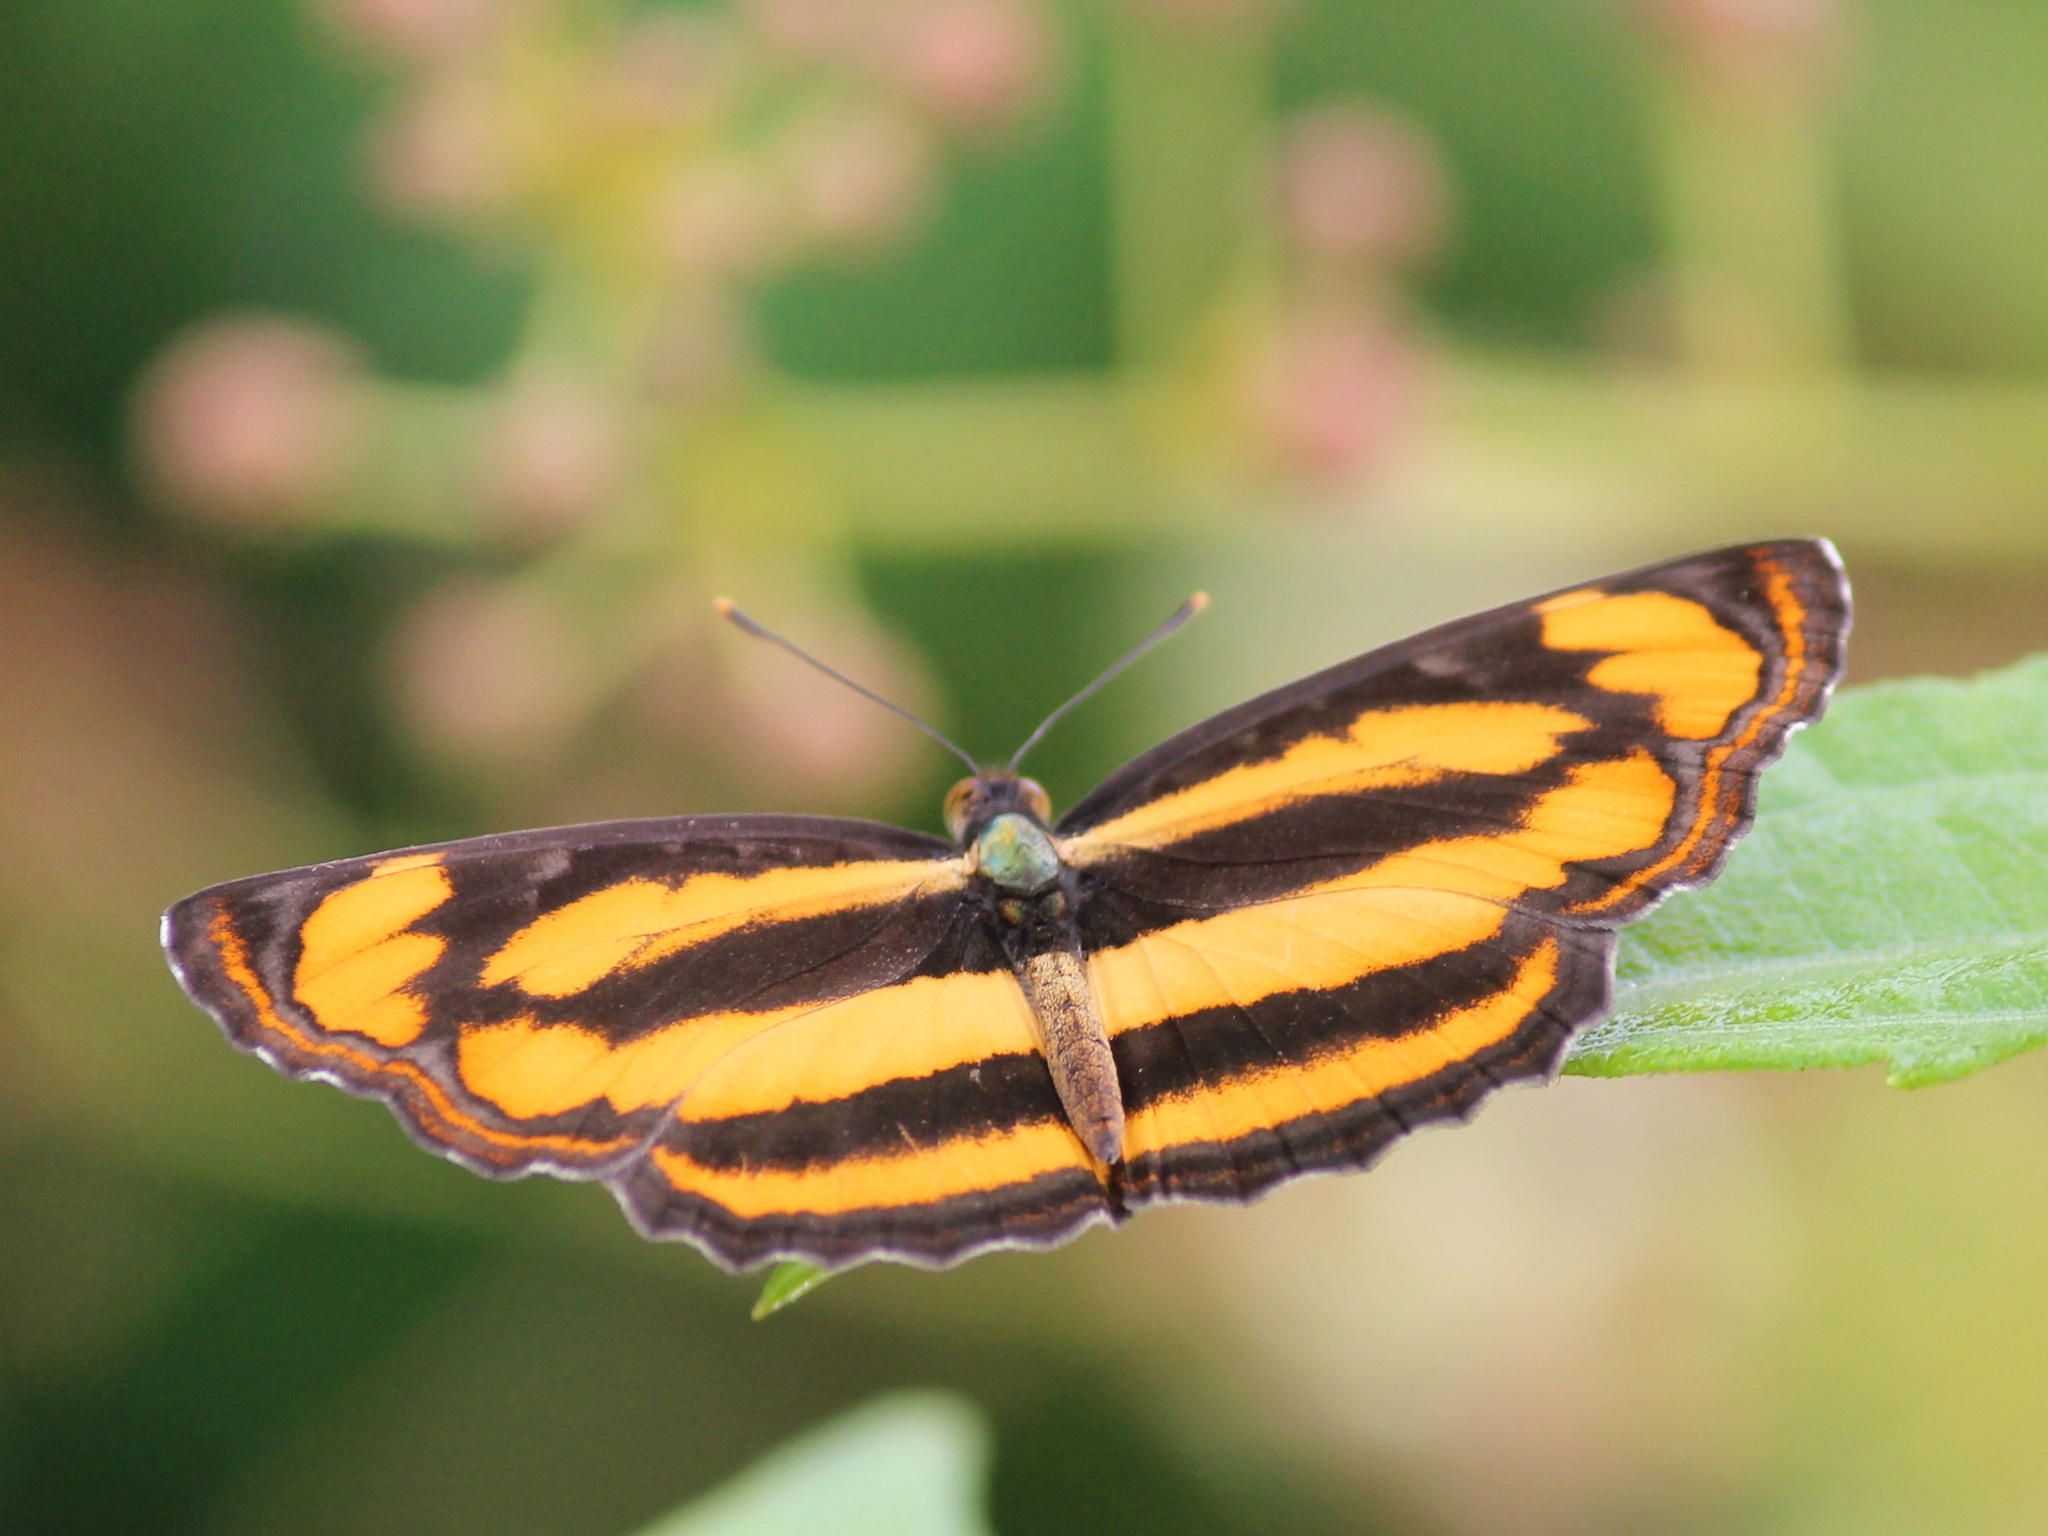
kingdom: Animalia
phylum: Arthropoda
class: Insecta
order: Lepidoptera
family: Nymphalidae
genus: Pantoporia
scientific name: Pantoporia hordonia
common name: Common lascar
